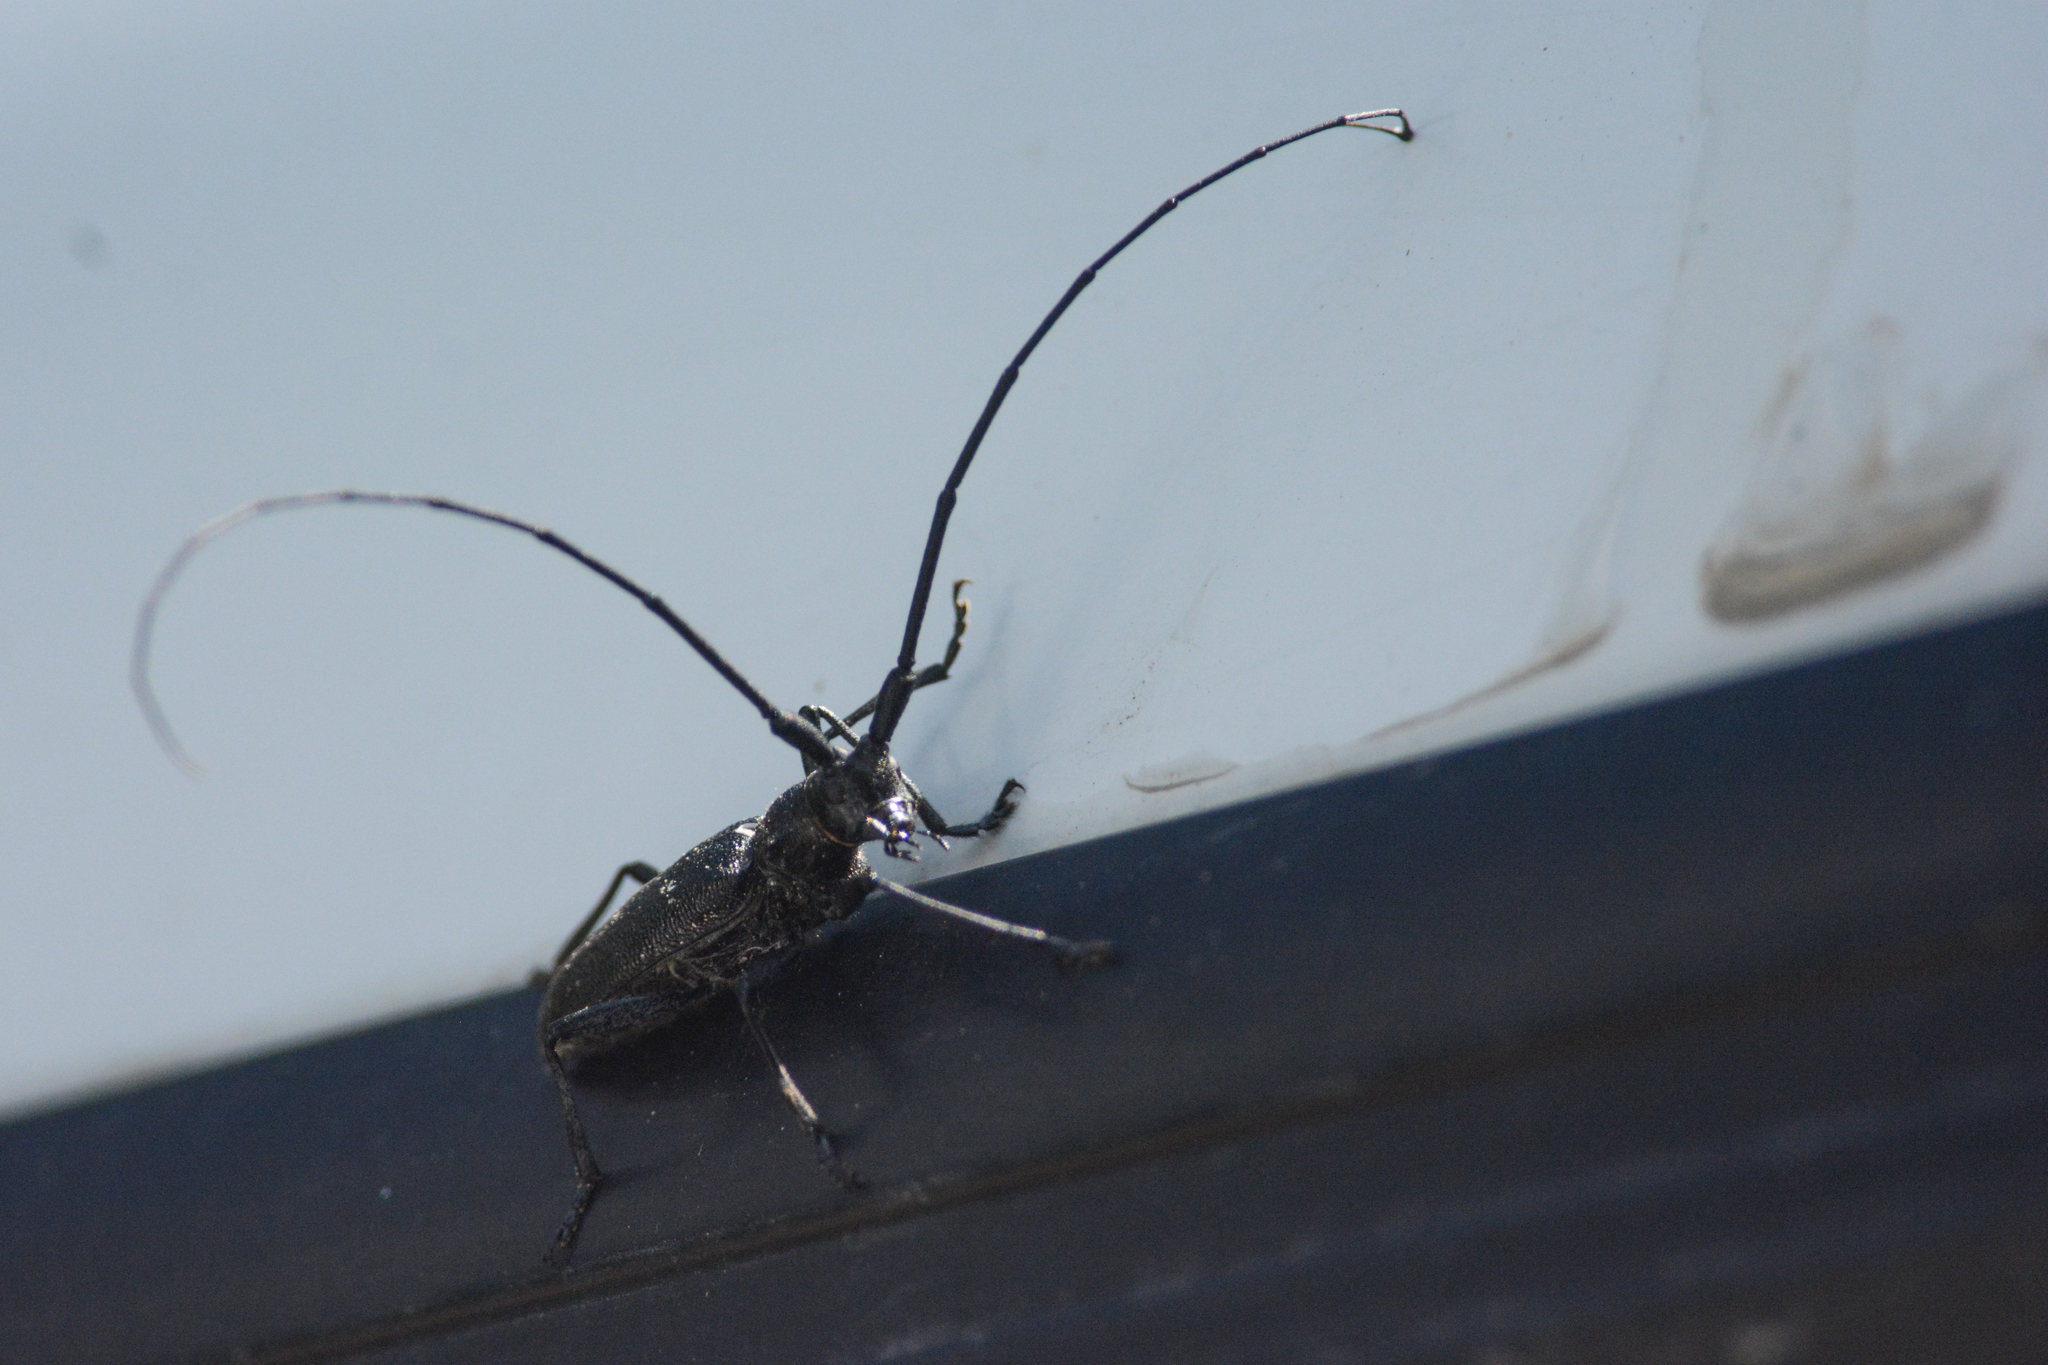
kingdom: Animalia
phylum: Arthropoda
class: Insecta
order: Coleoptera
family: Cerambycidae
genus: Monochamus
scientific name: Monochamus scutellatus
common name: White-spotted sawyer beetle
